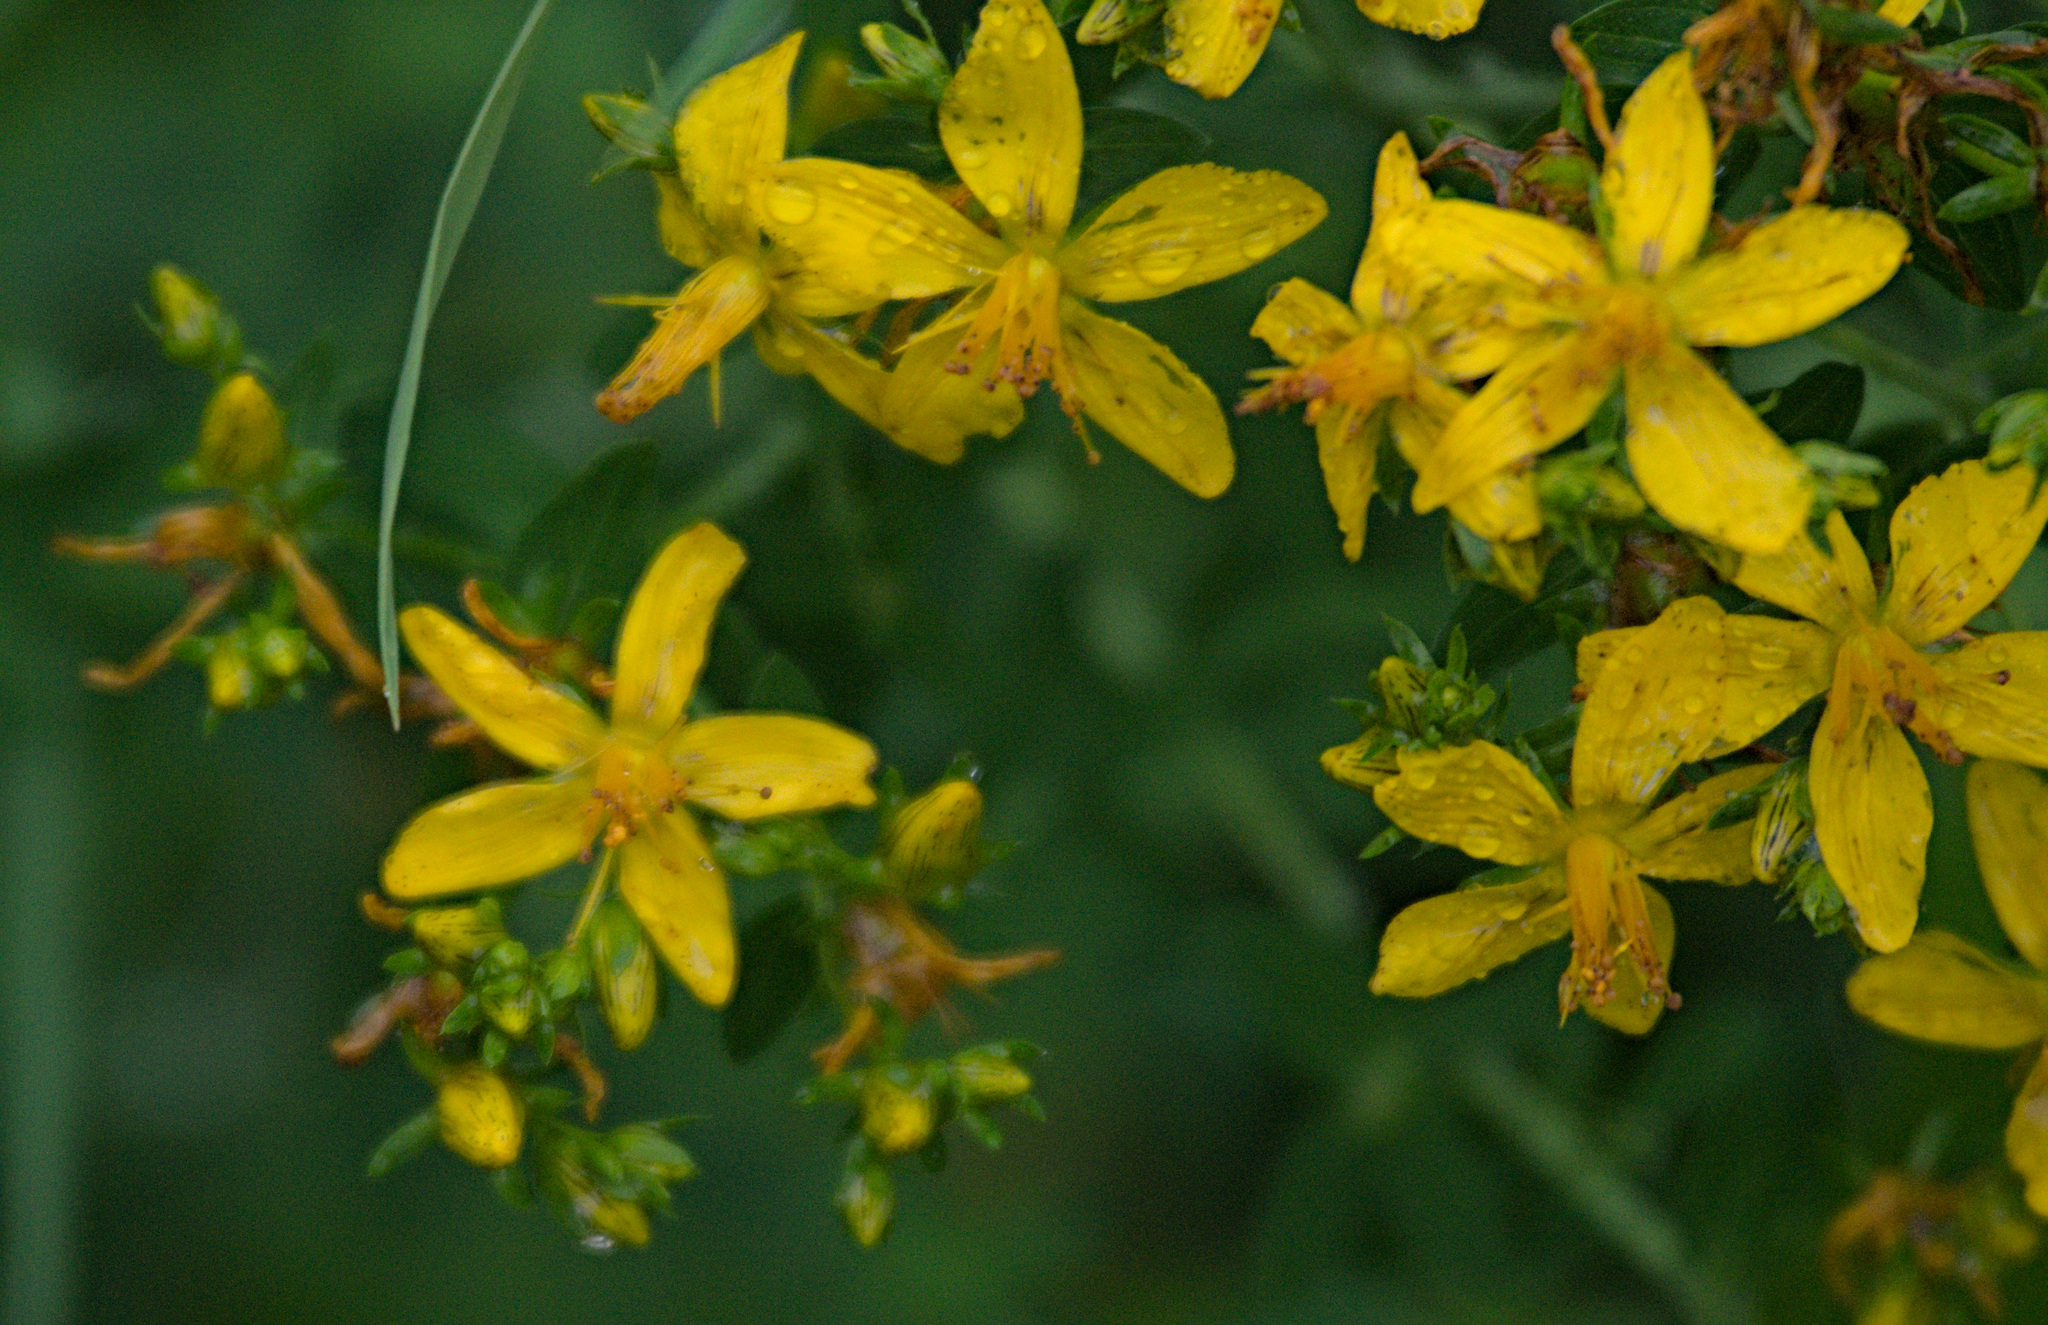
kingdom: Plantae
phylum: Tracheophyta
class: Magnoliopsida
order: Malpighiales
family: Hypericaceae
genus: Hypericum
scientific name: Hypericum perforatum
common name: Common st. johnswort
